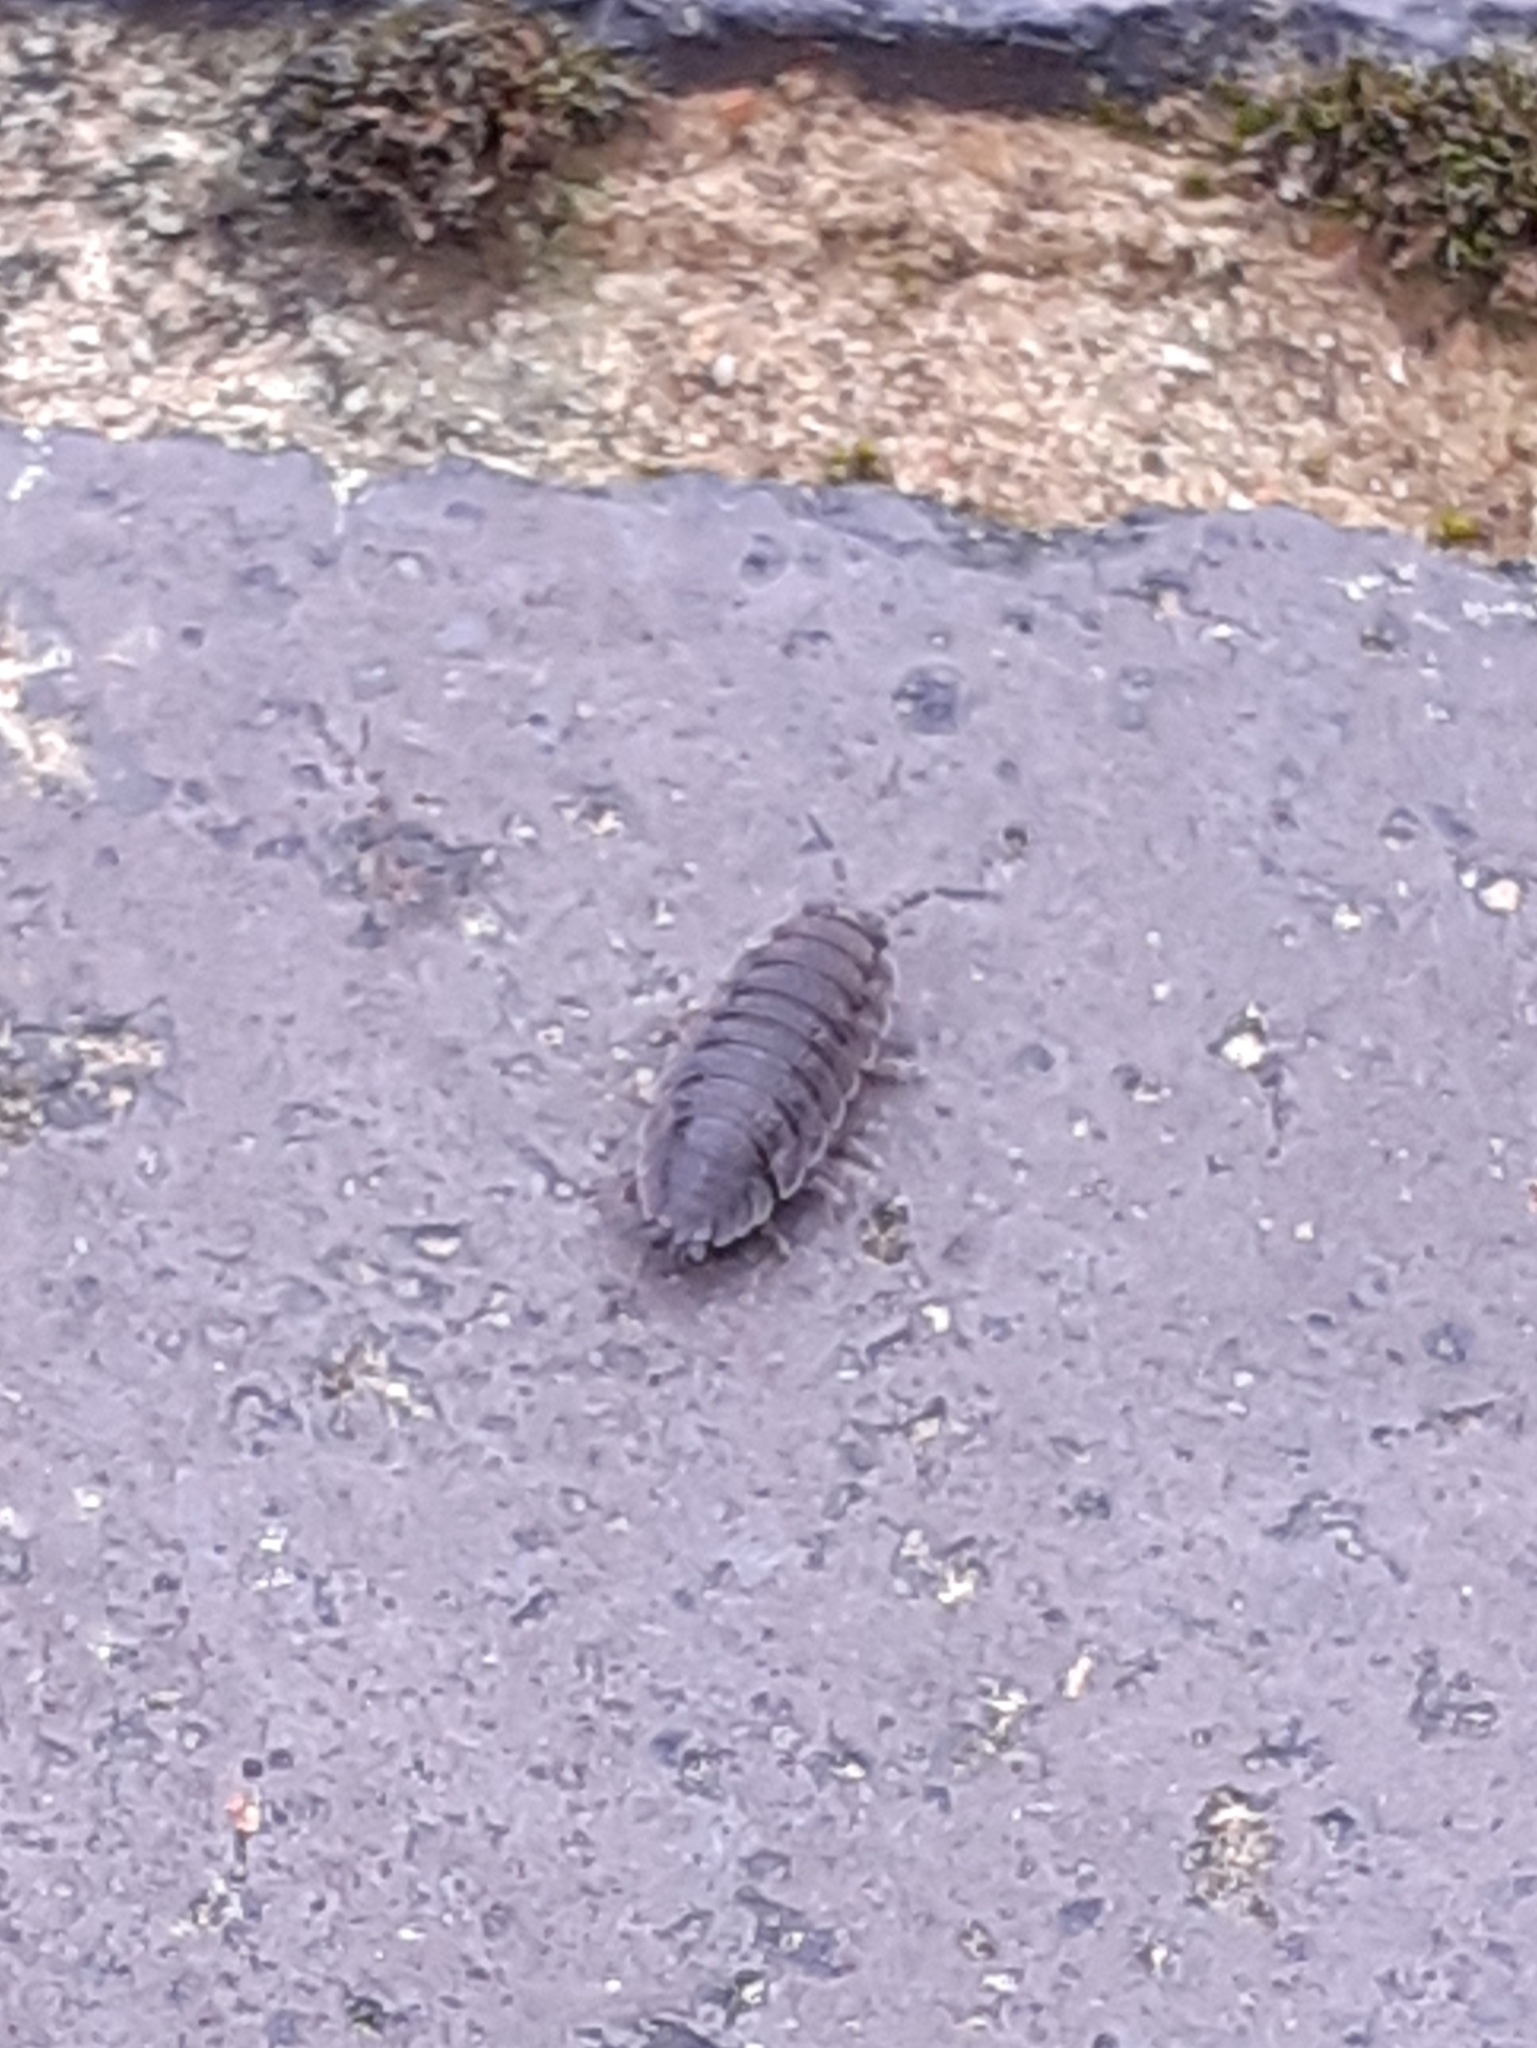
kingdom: Animalia
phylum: Arthropoda
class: Malacostraca
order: Isopoda
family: Porcellionidae
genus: Porcellio
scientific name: Porcellio scaber
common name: Common rough woodlouse
